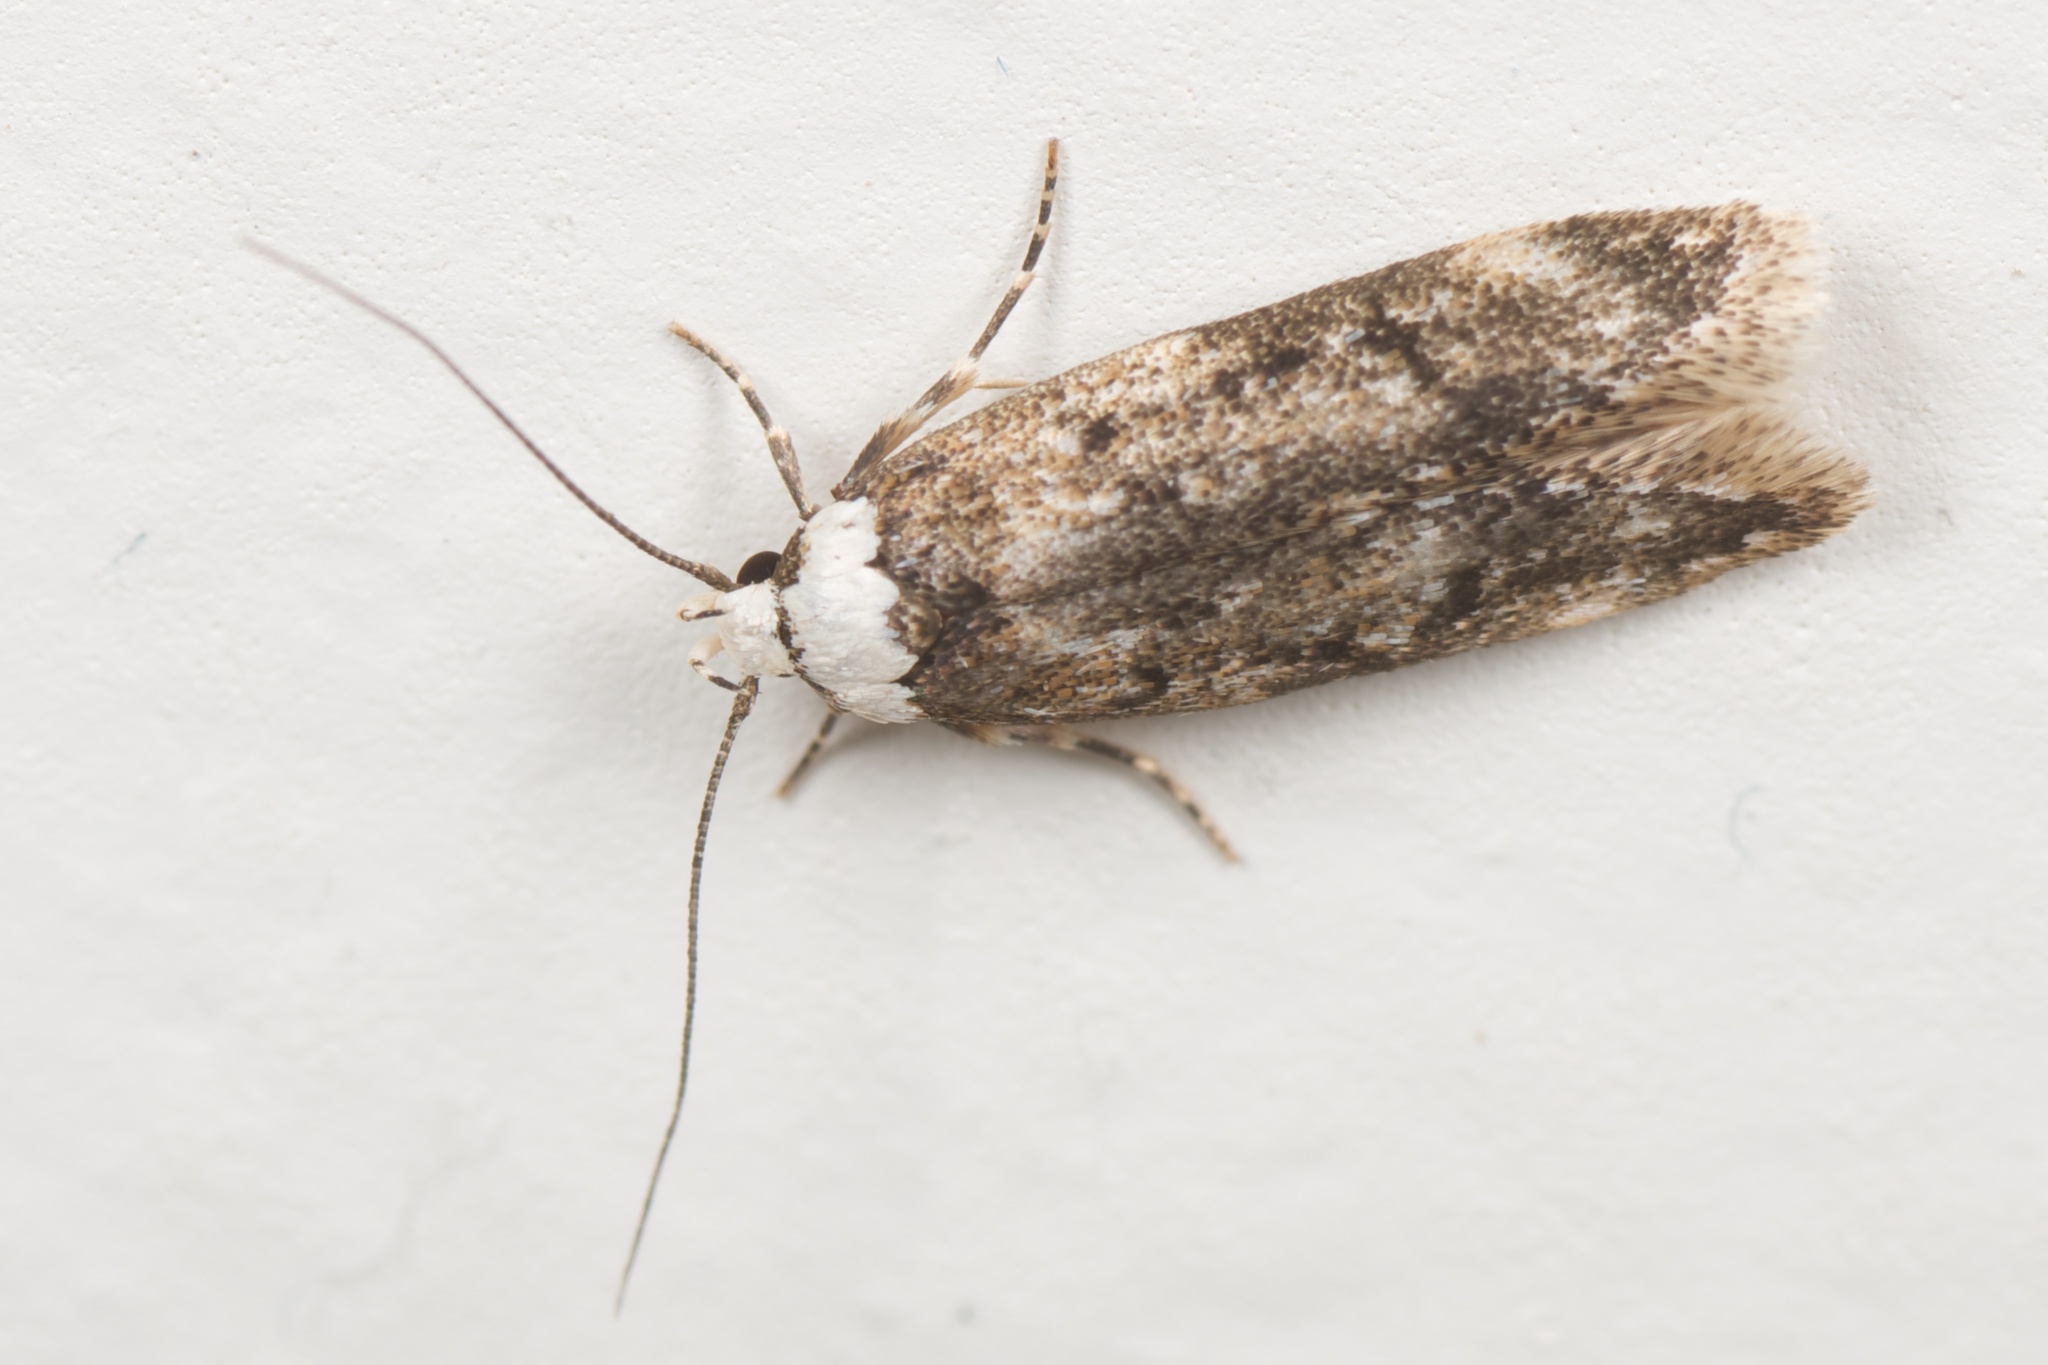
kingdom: Animalia
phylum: Arthropoda
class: Insecta
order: Lepidoptera
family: Oecophoridae
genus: Endrosis
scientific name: Endrosis sarcitrella
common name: White-shouldered house moth
